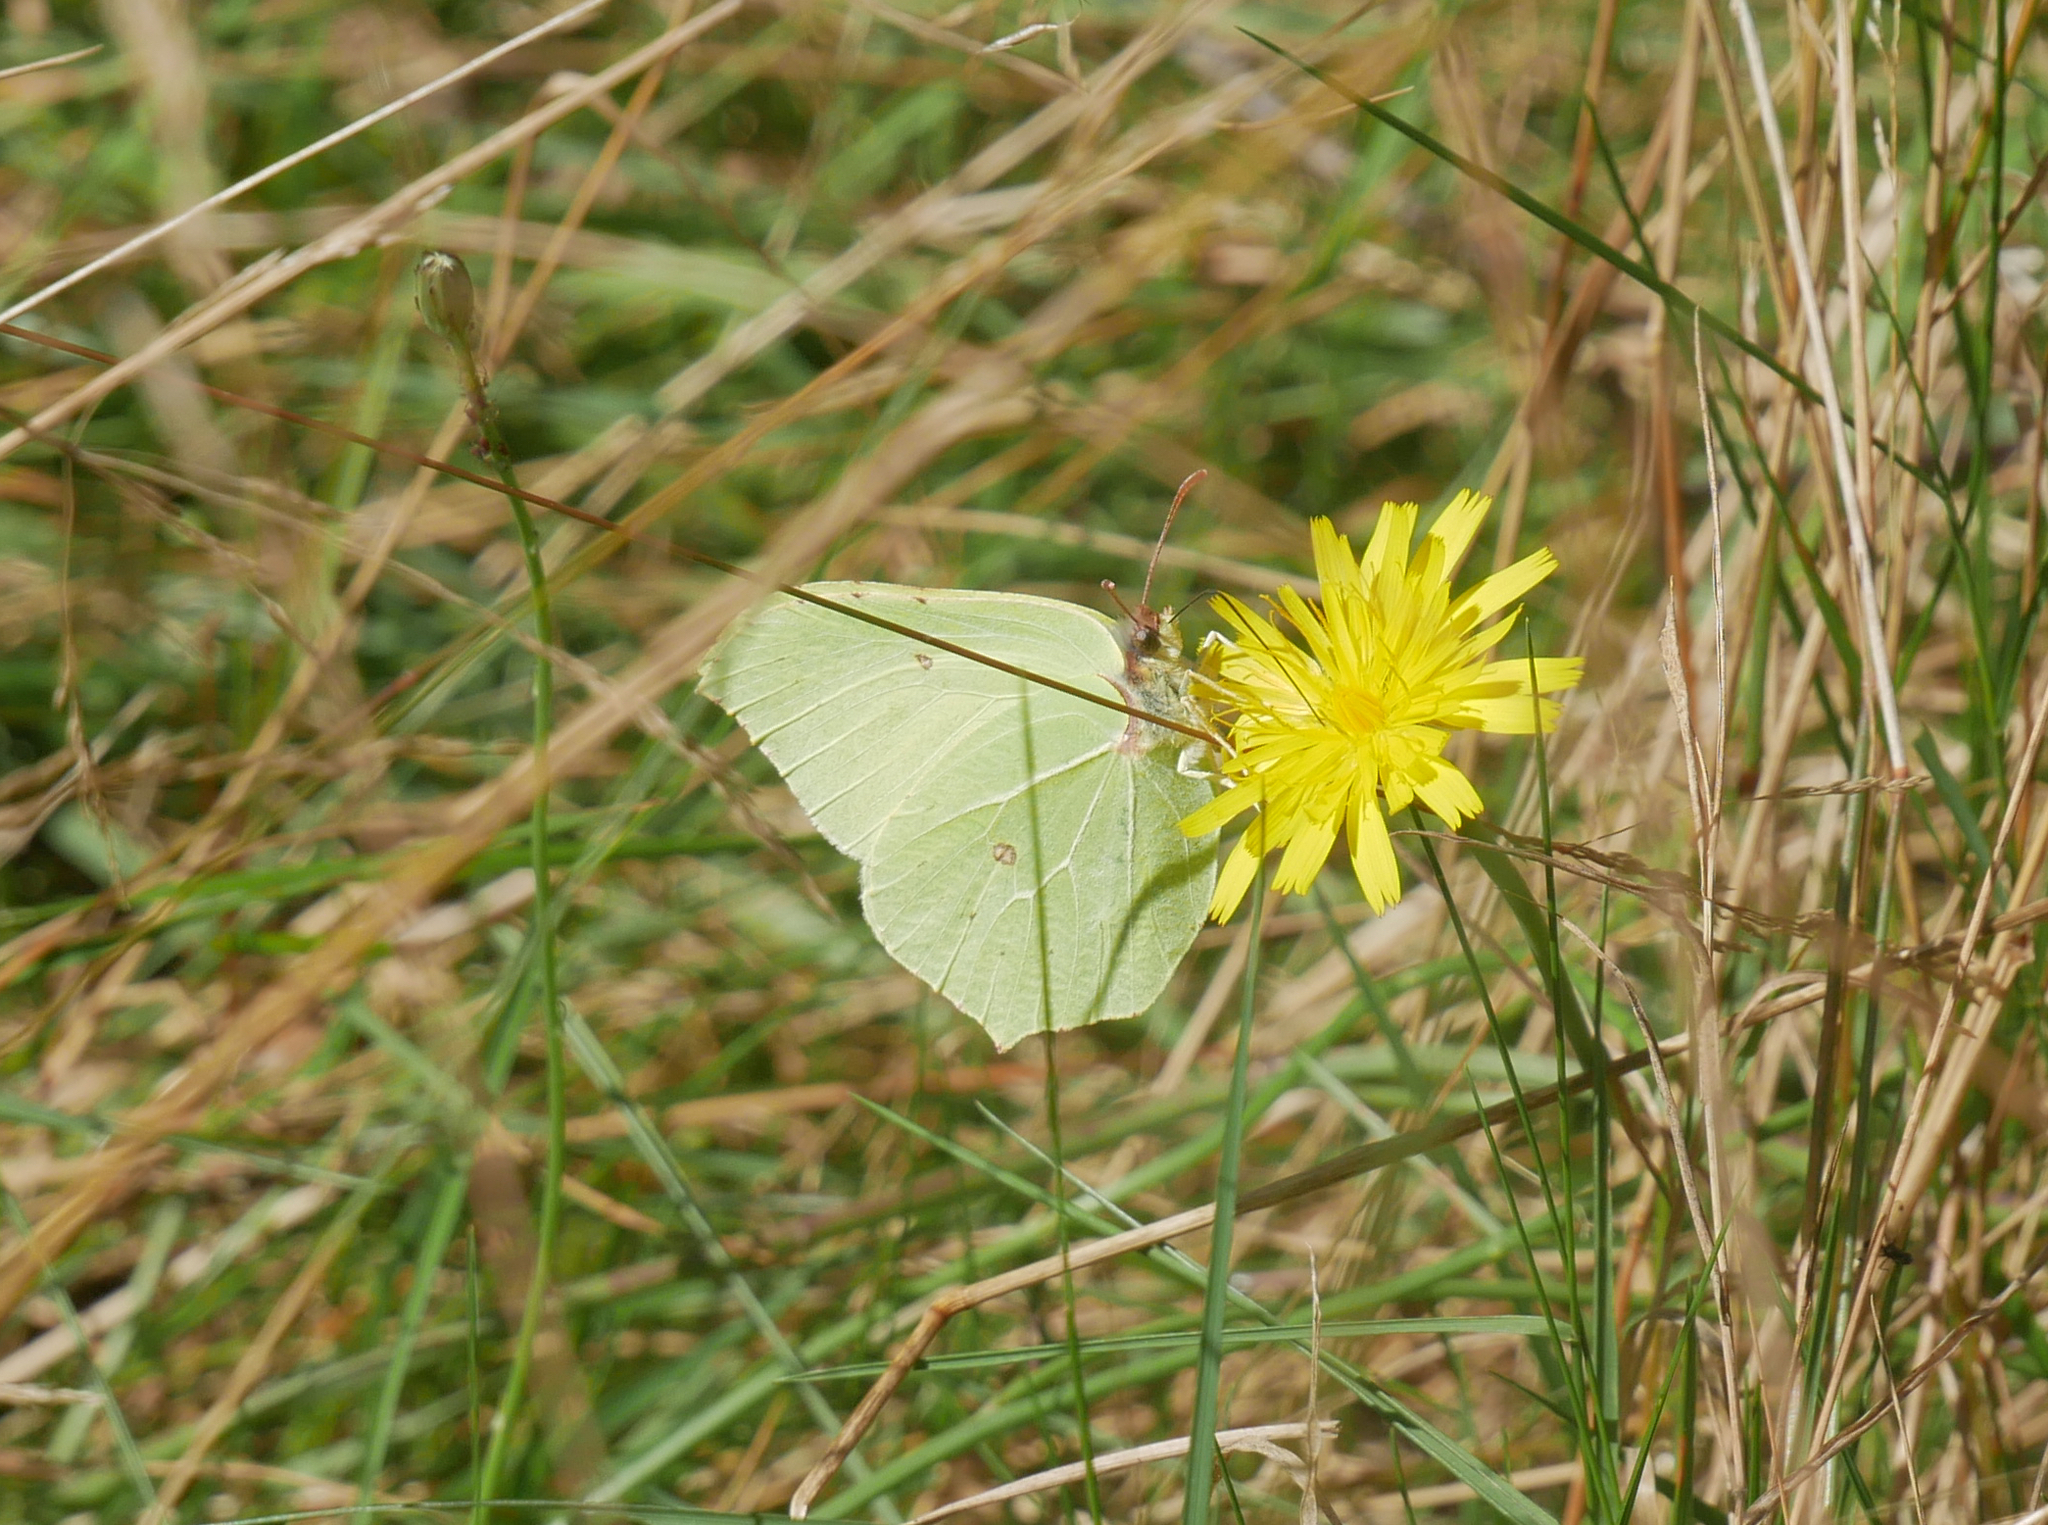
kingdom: Animalia
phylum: Arthropoda
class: Insecta
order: Lepidoptera
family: Pieridae
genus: Gonepteryx
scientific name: Gonepteryx rhamni
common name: Brimstone
